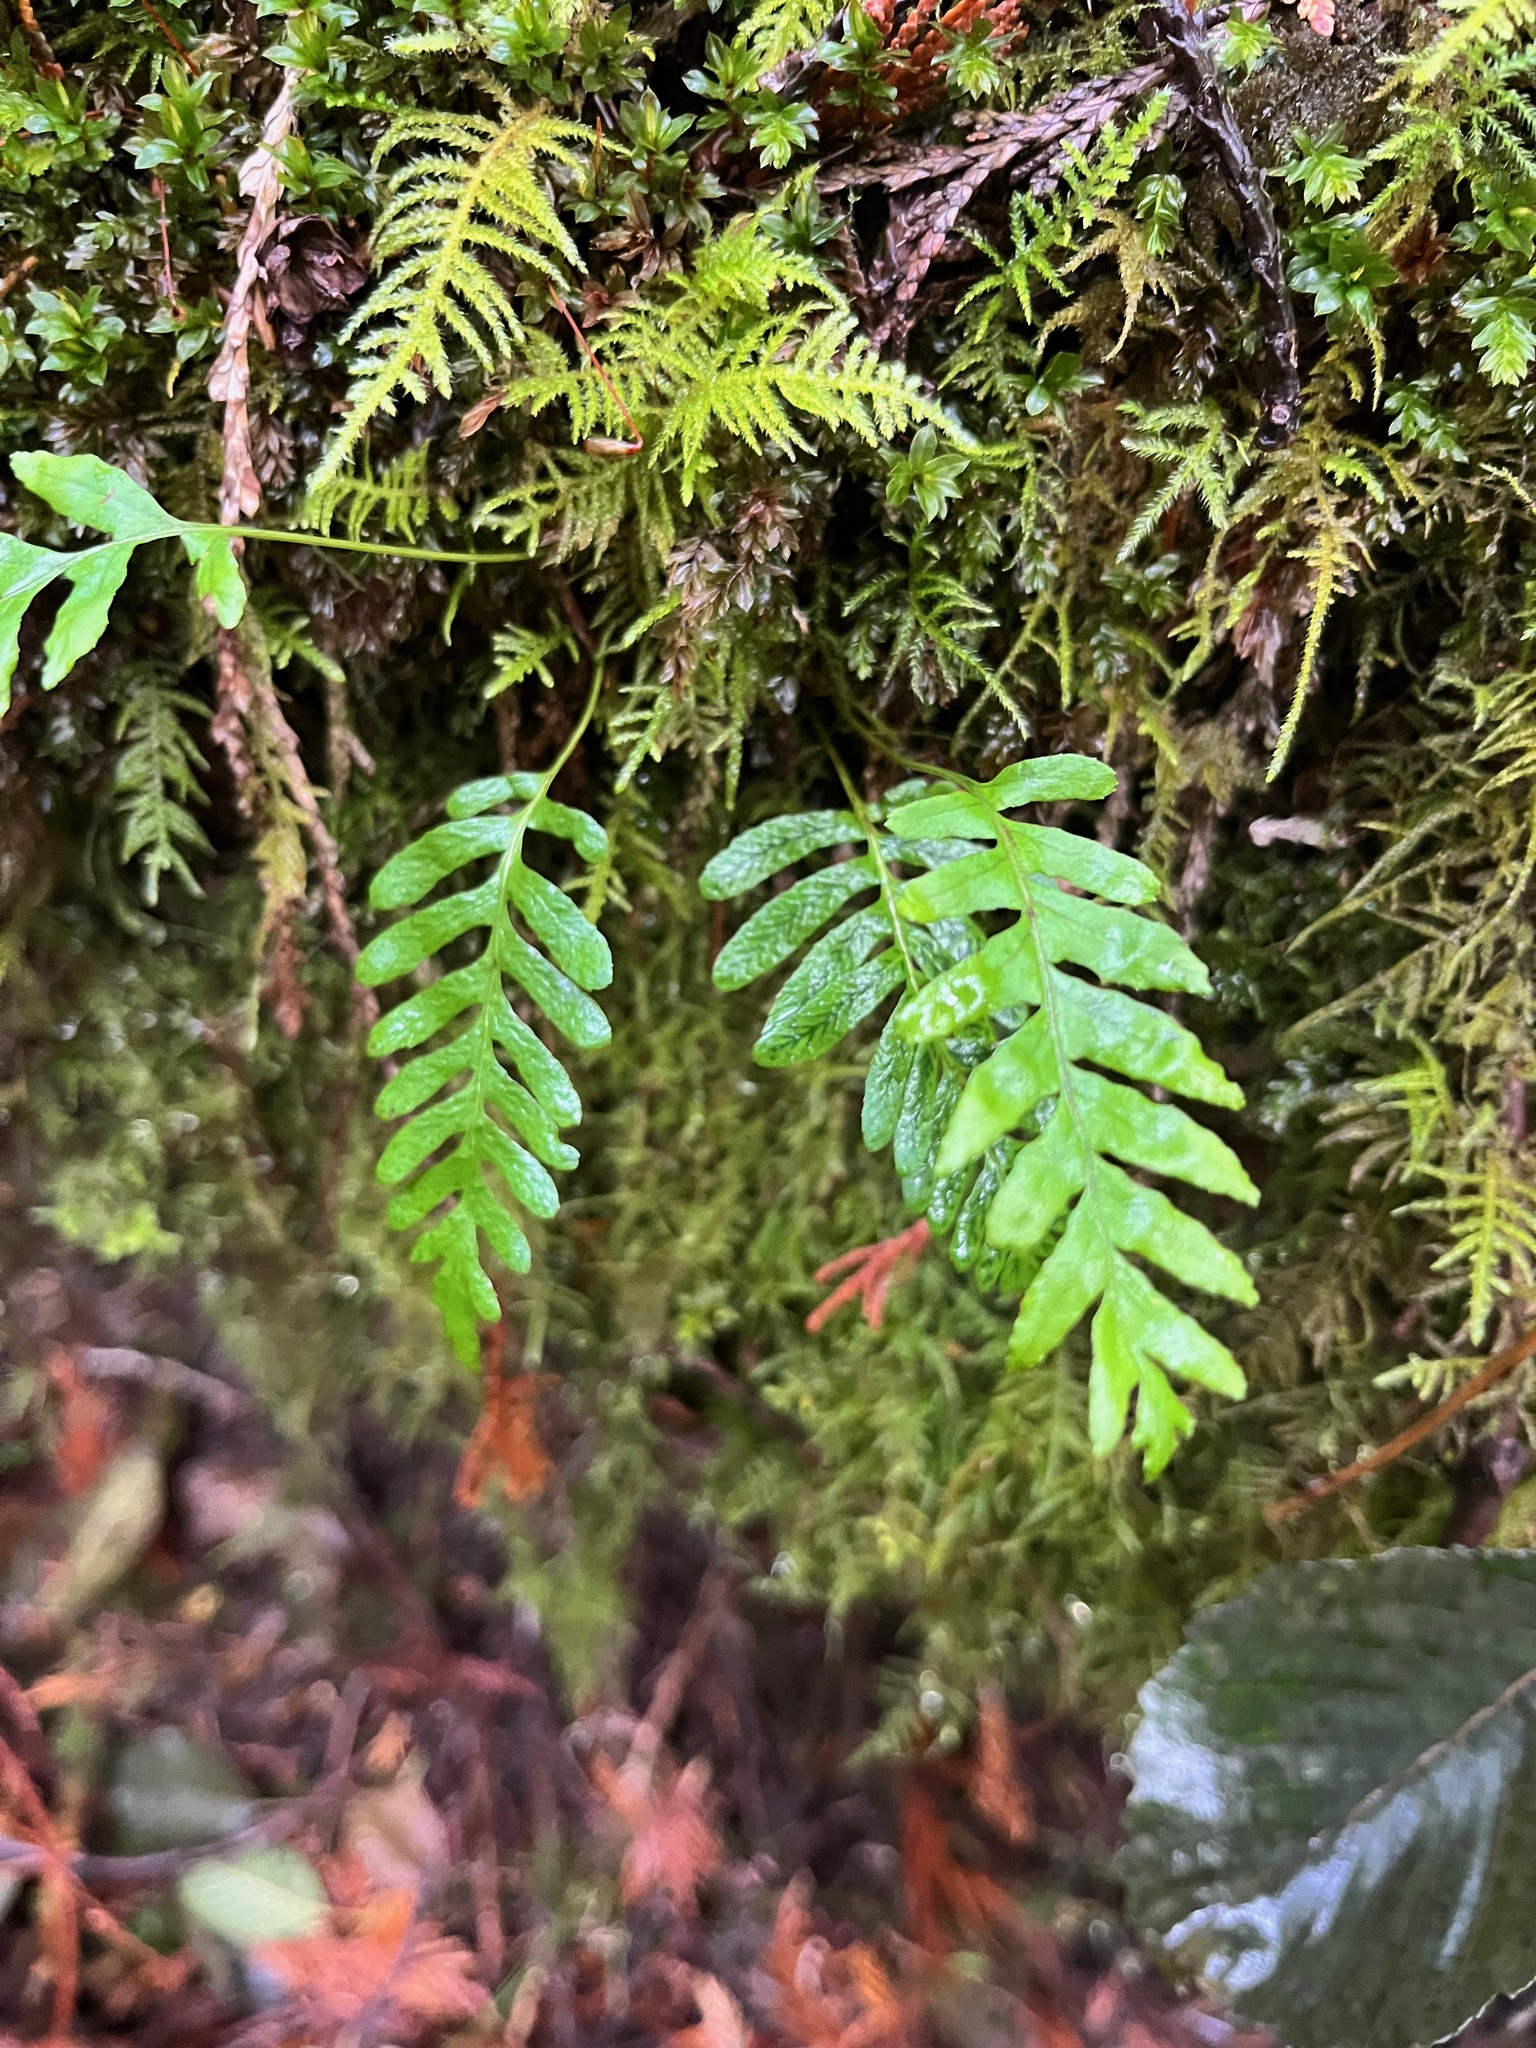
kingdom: Plantae
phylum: Tracheophyta
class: Polypodiopsida
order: Polypodiales
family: Polypodiaceae
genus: Polypodium
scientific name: Polypodium glycyrrhiza
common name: Licorice fern
